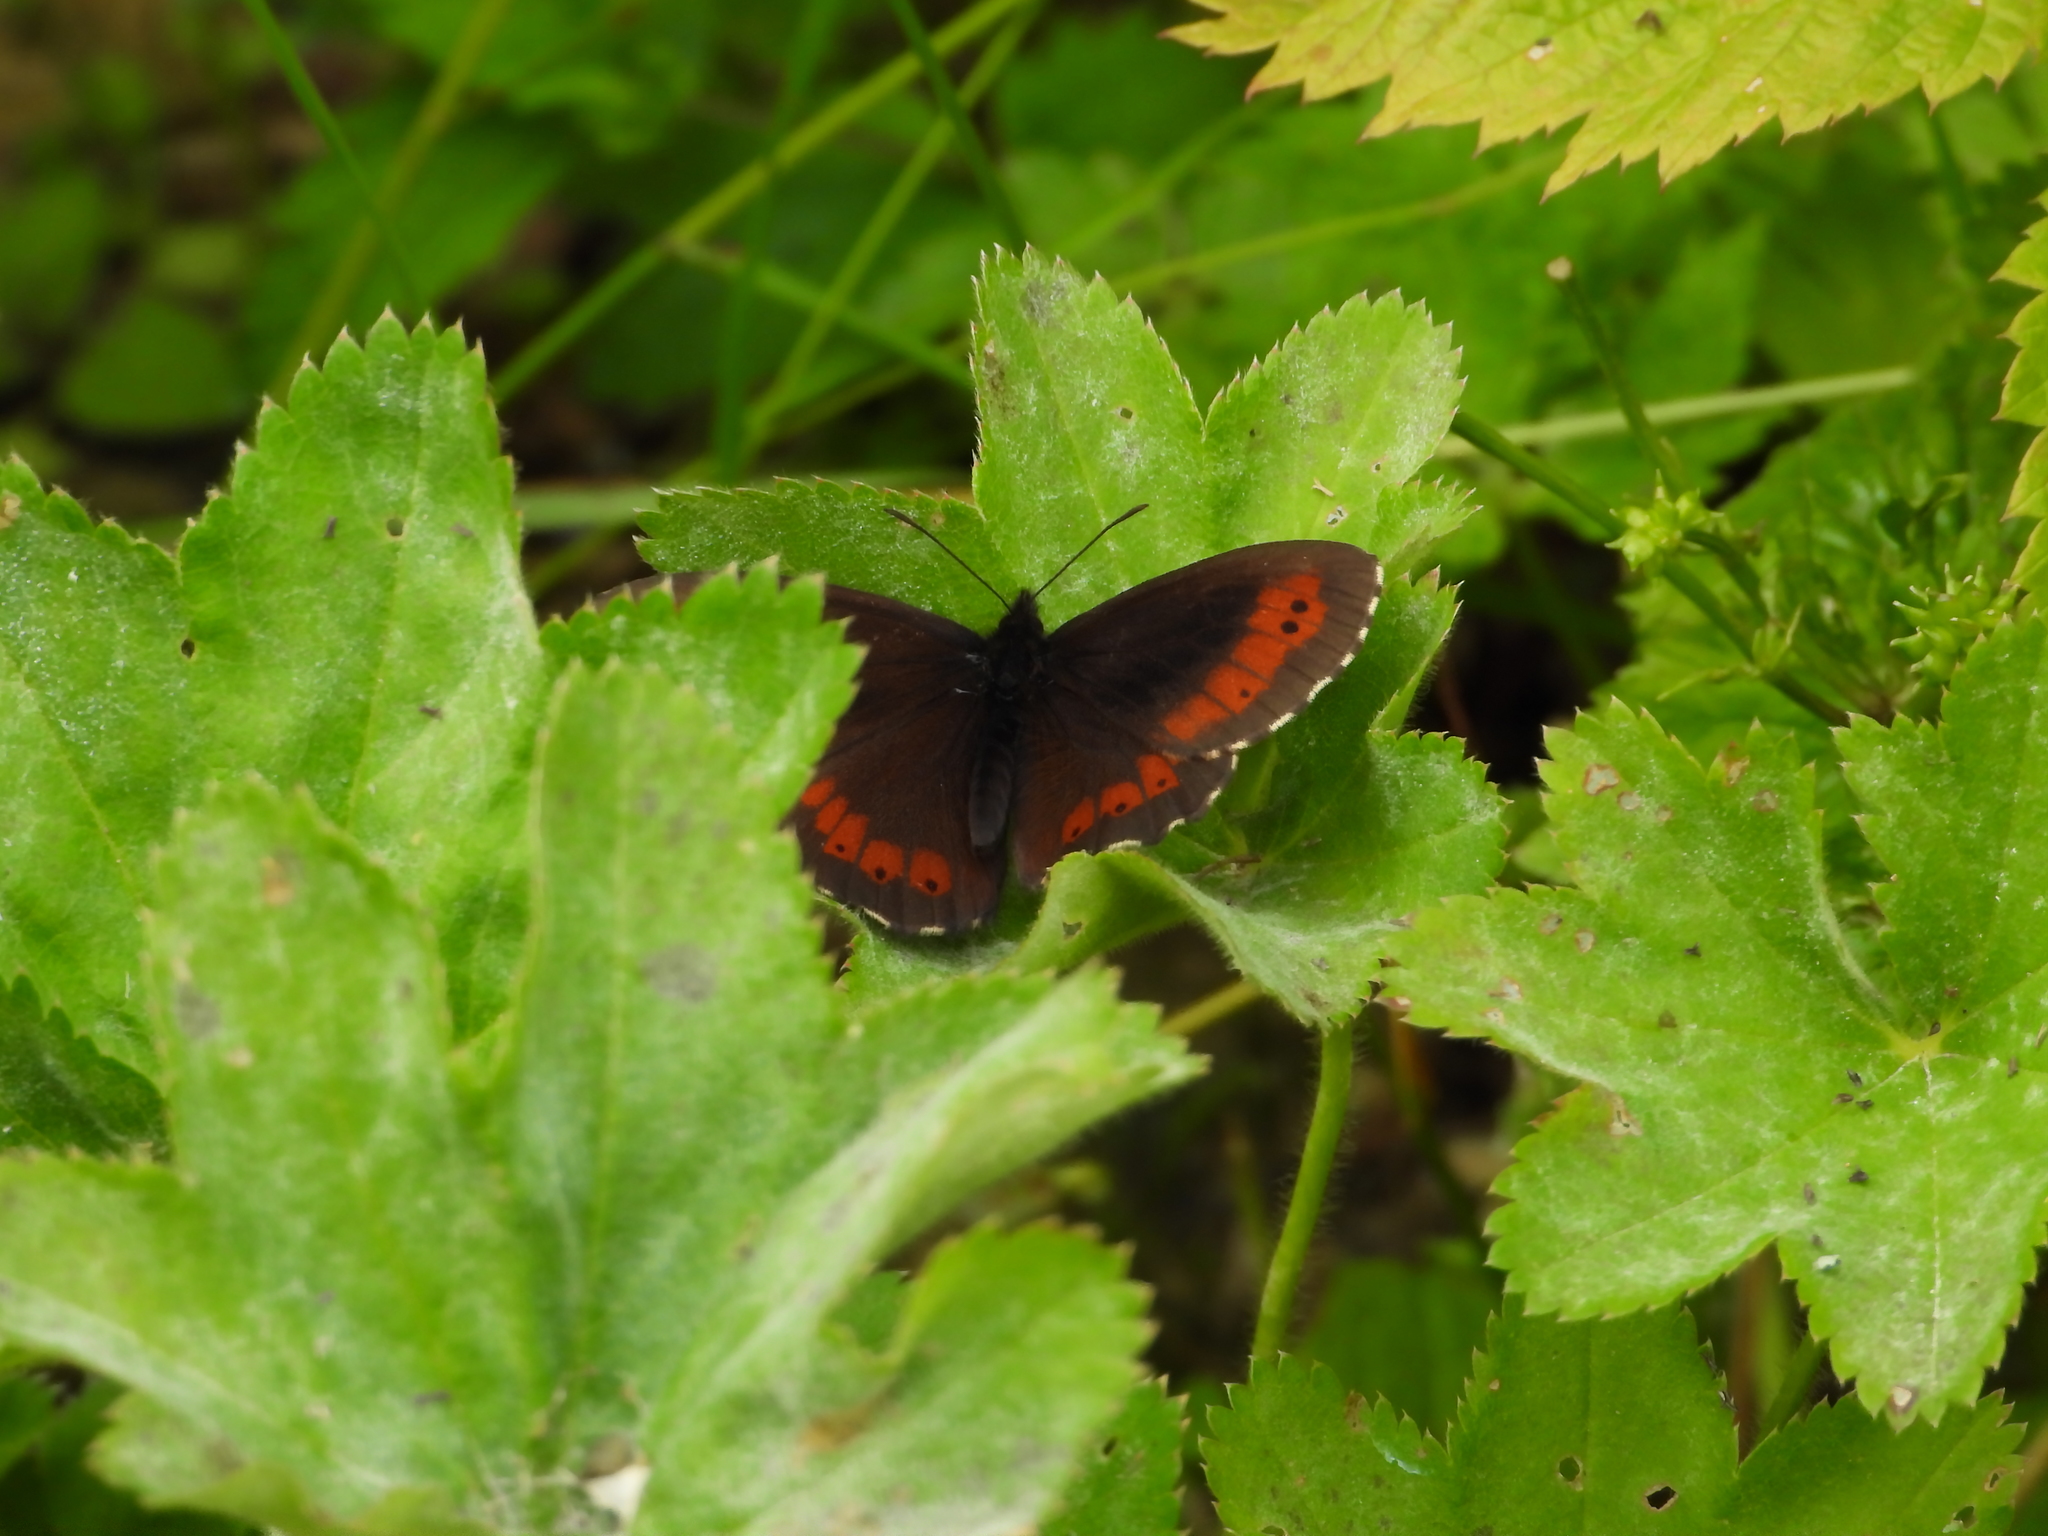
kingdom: Animalia
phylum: Arthropoda
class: Insecta
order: Lepidoptera
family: Nymphalidae
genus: Erebia
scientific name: Erebia euryale
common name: Large ringlet
